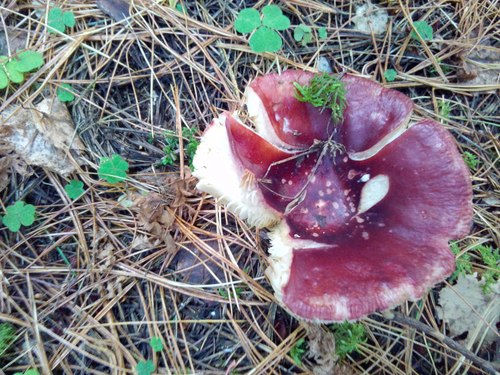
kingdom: Fungi
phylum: Basidiomycota
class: Agaricomycetes
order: Russulales
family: Russulaceae
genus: Russula
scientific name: Russula sanguinea
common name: Bloody brittlegill
